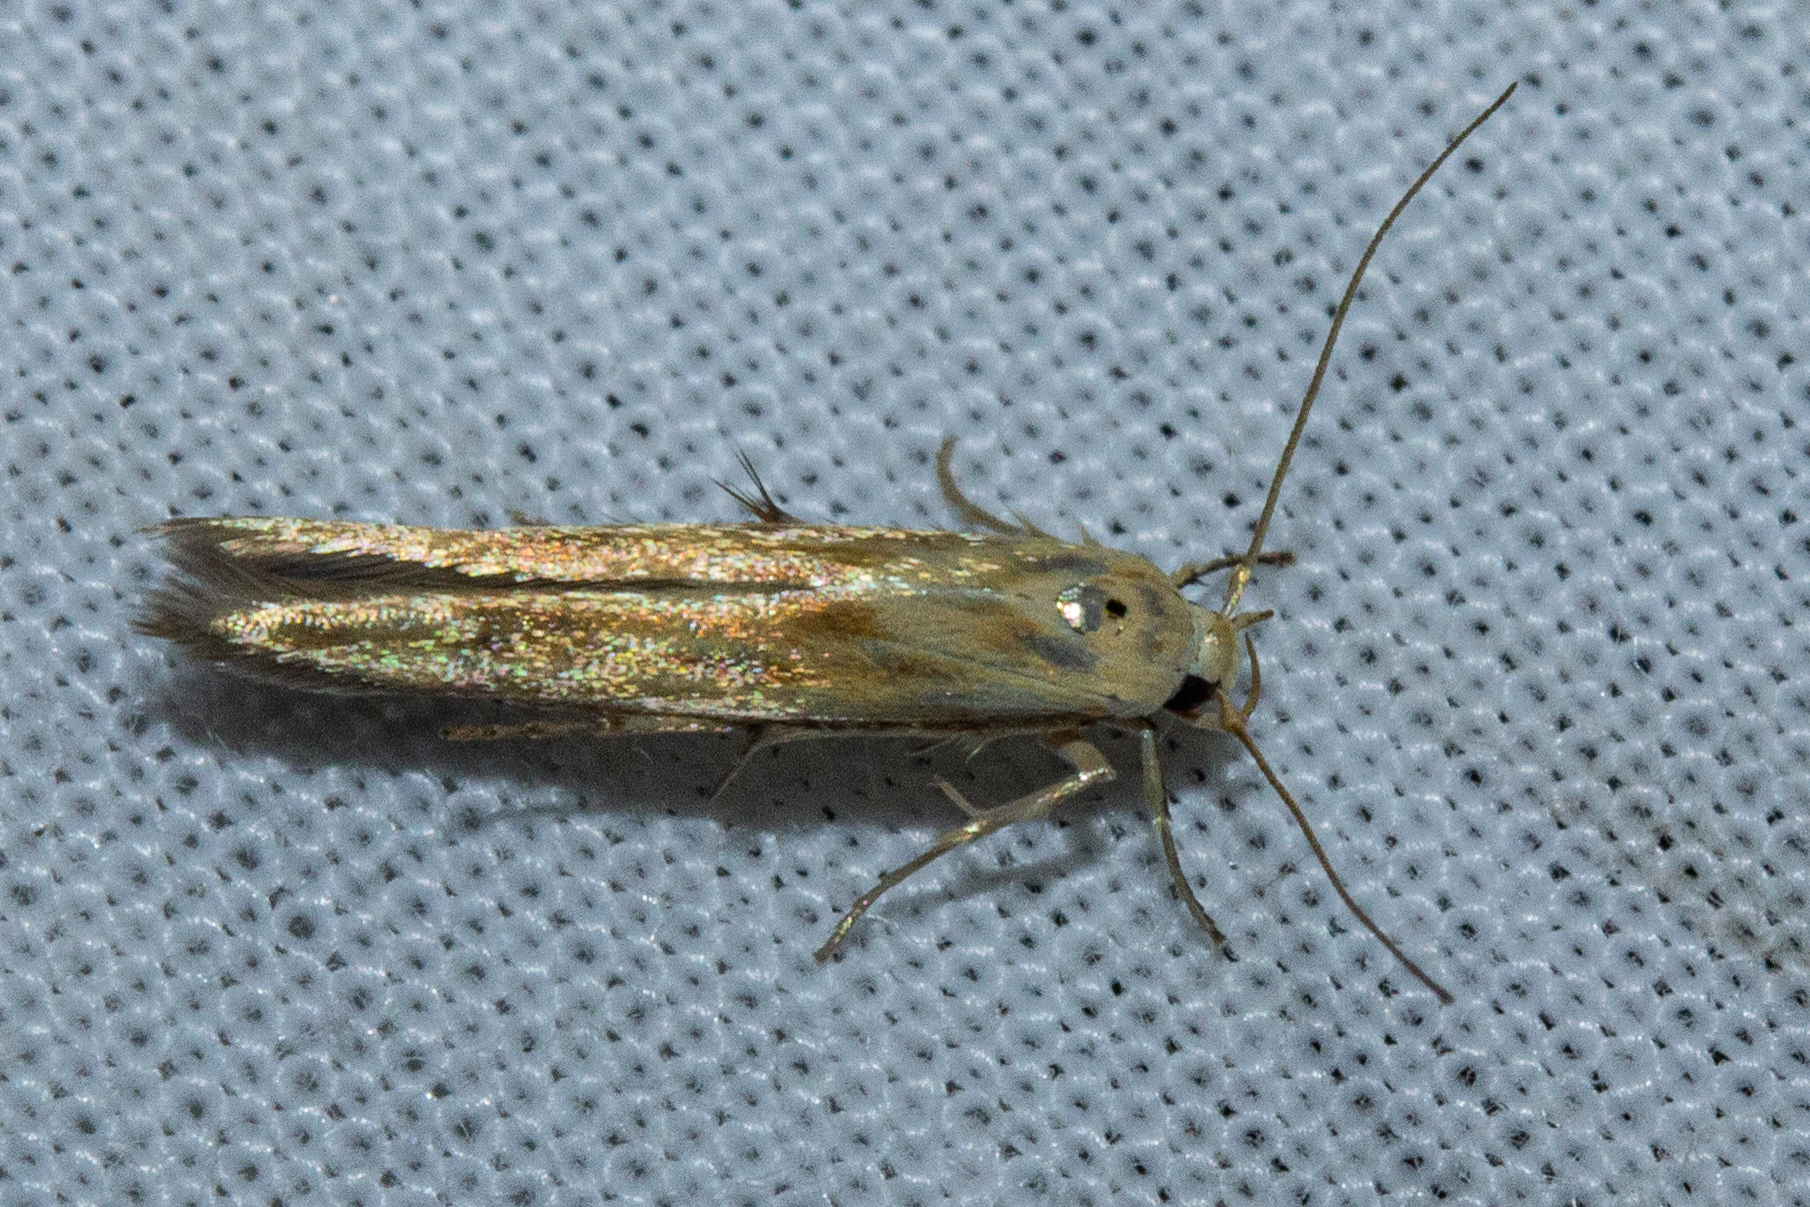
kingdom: Animalia
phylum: Arthropoda
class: Insecta
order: Lepidoptera
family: Stathmopodidae
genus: Stathmopoda
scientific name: Stathmopoda aposema
